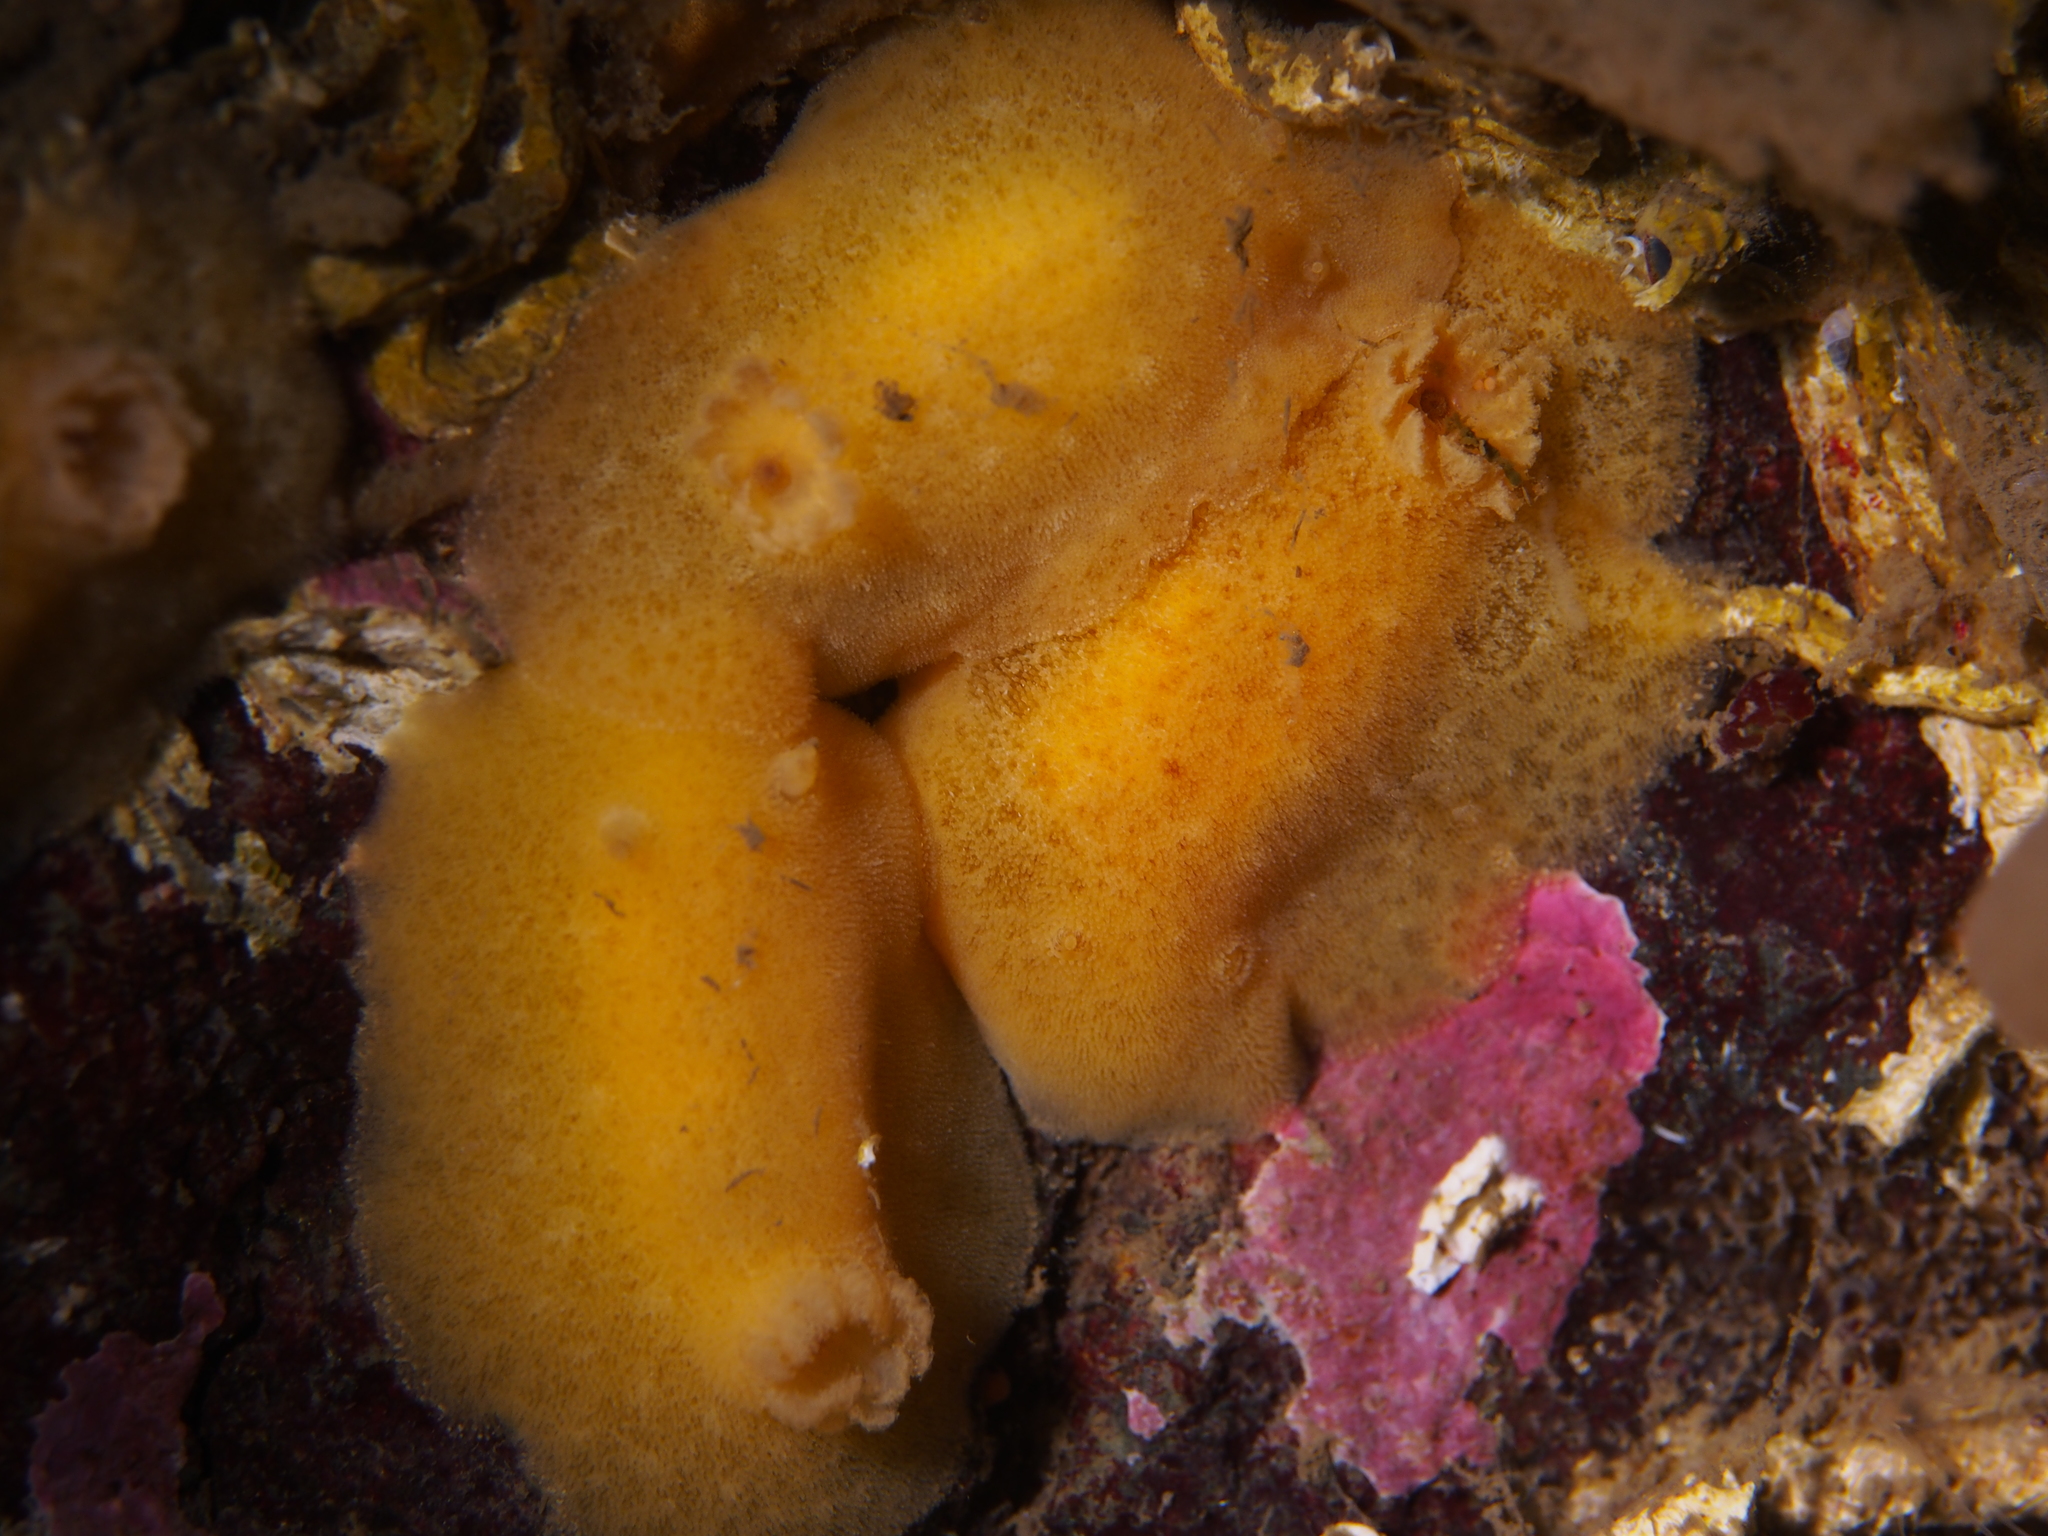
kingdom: Animalia
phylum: Mollusca
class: Gastropoda
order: Nudibranchia
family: Discodorididae
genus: Jorunna
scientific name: Jorunna tomentosa
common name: Grey sea slug
